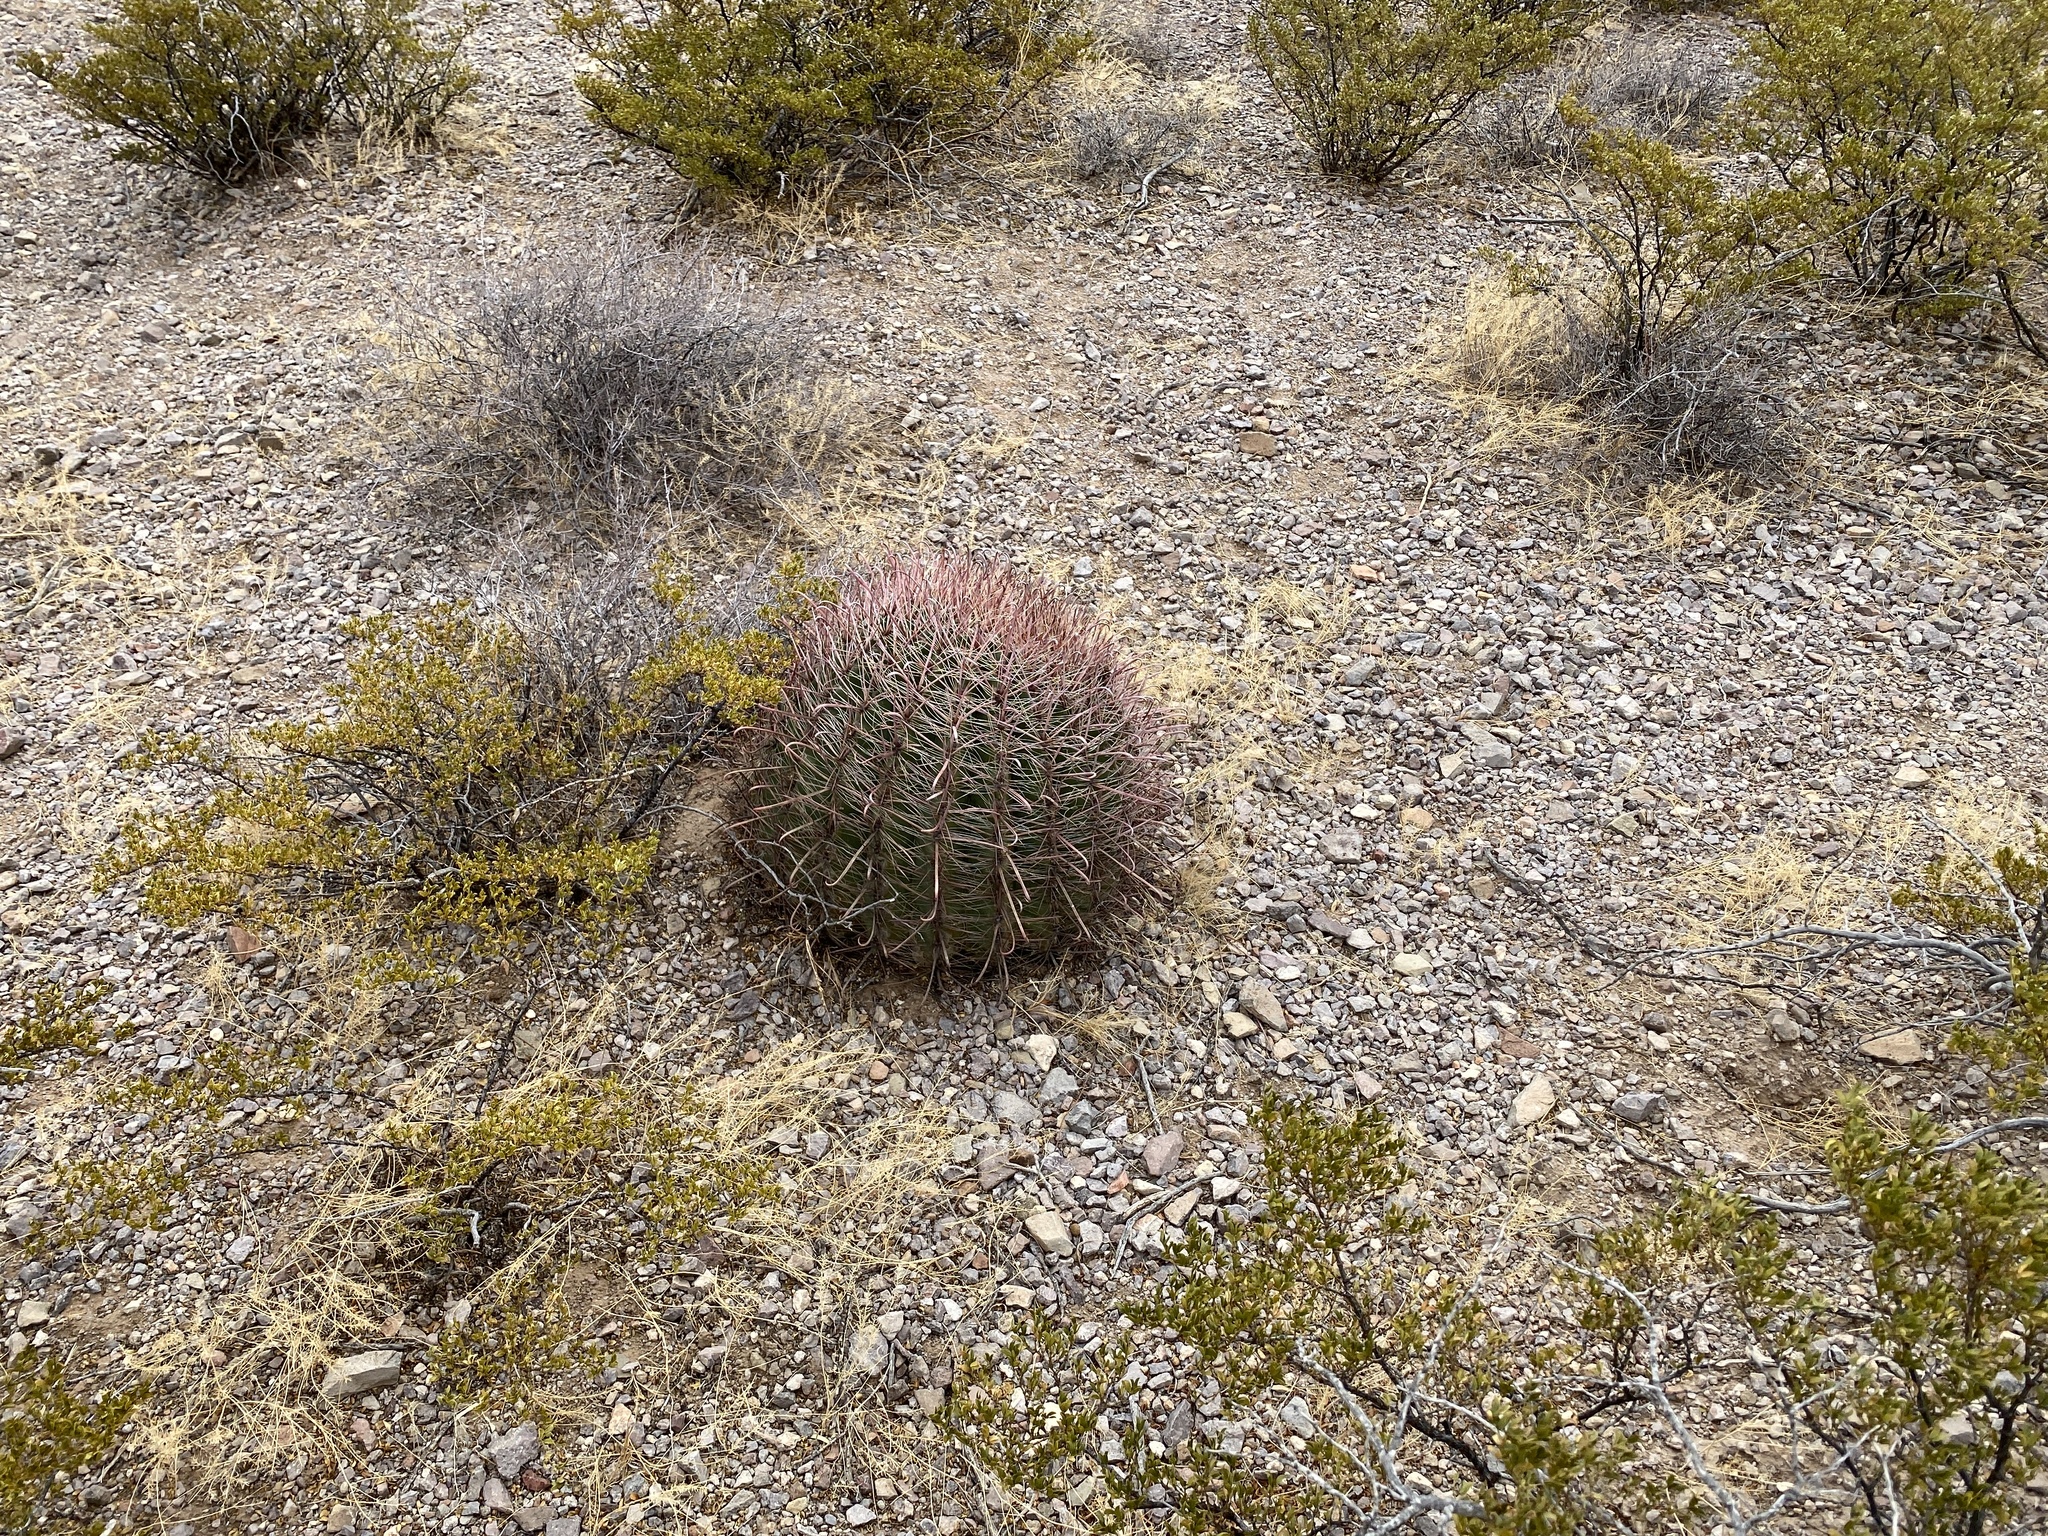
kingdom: Plantae
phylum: Tracheophyta
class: Magnoliopsida
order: Caryophyllales
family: Cactaceae
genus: Ferocactus
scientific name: Ferocactus wislizeni
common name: Candy barrel cactus
